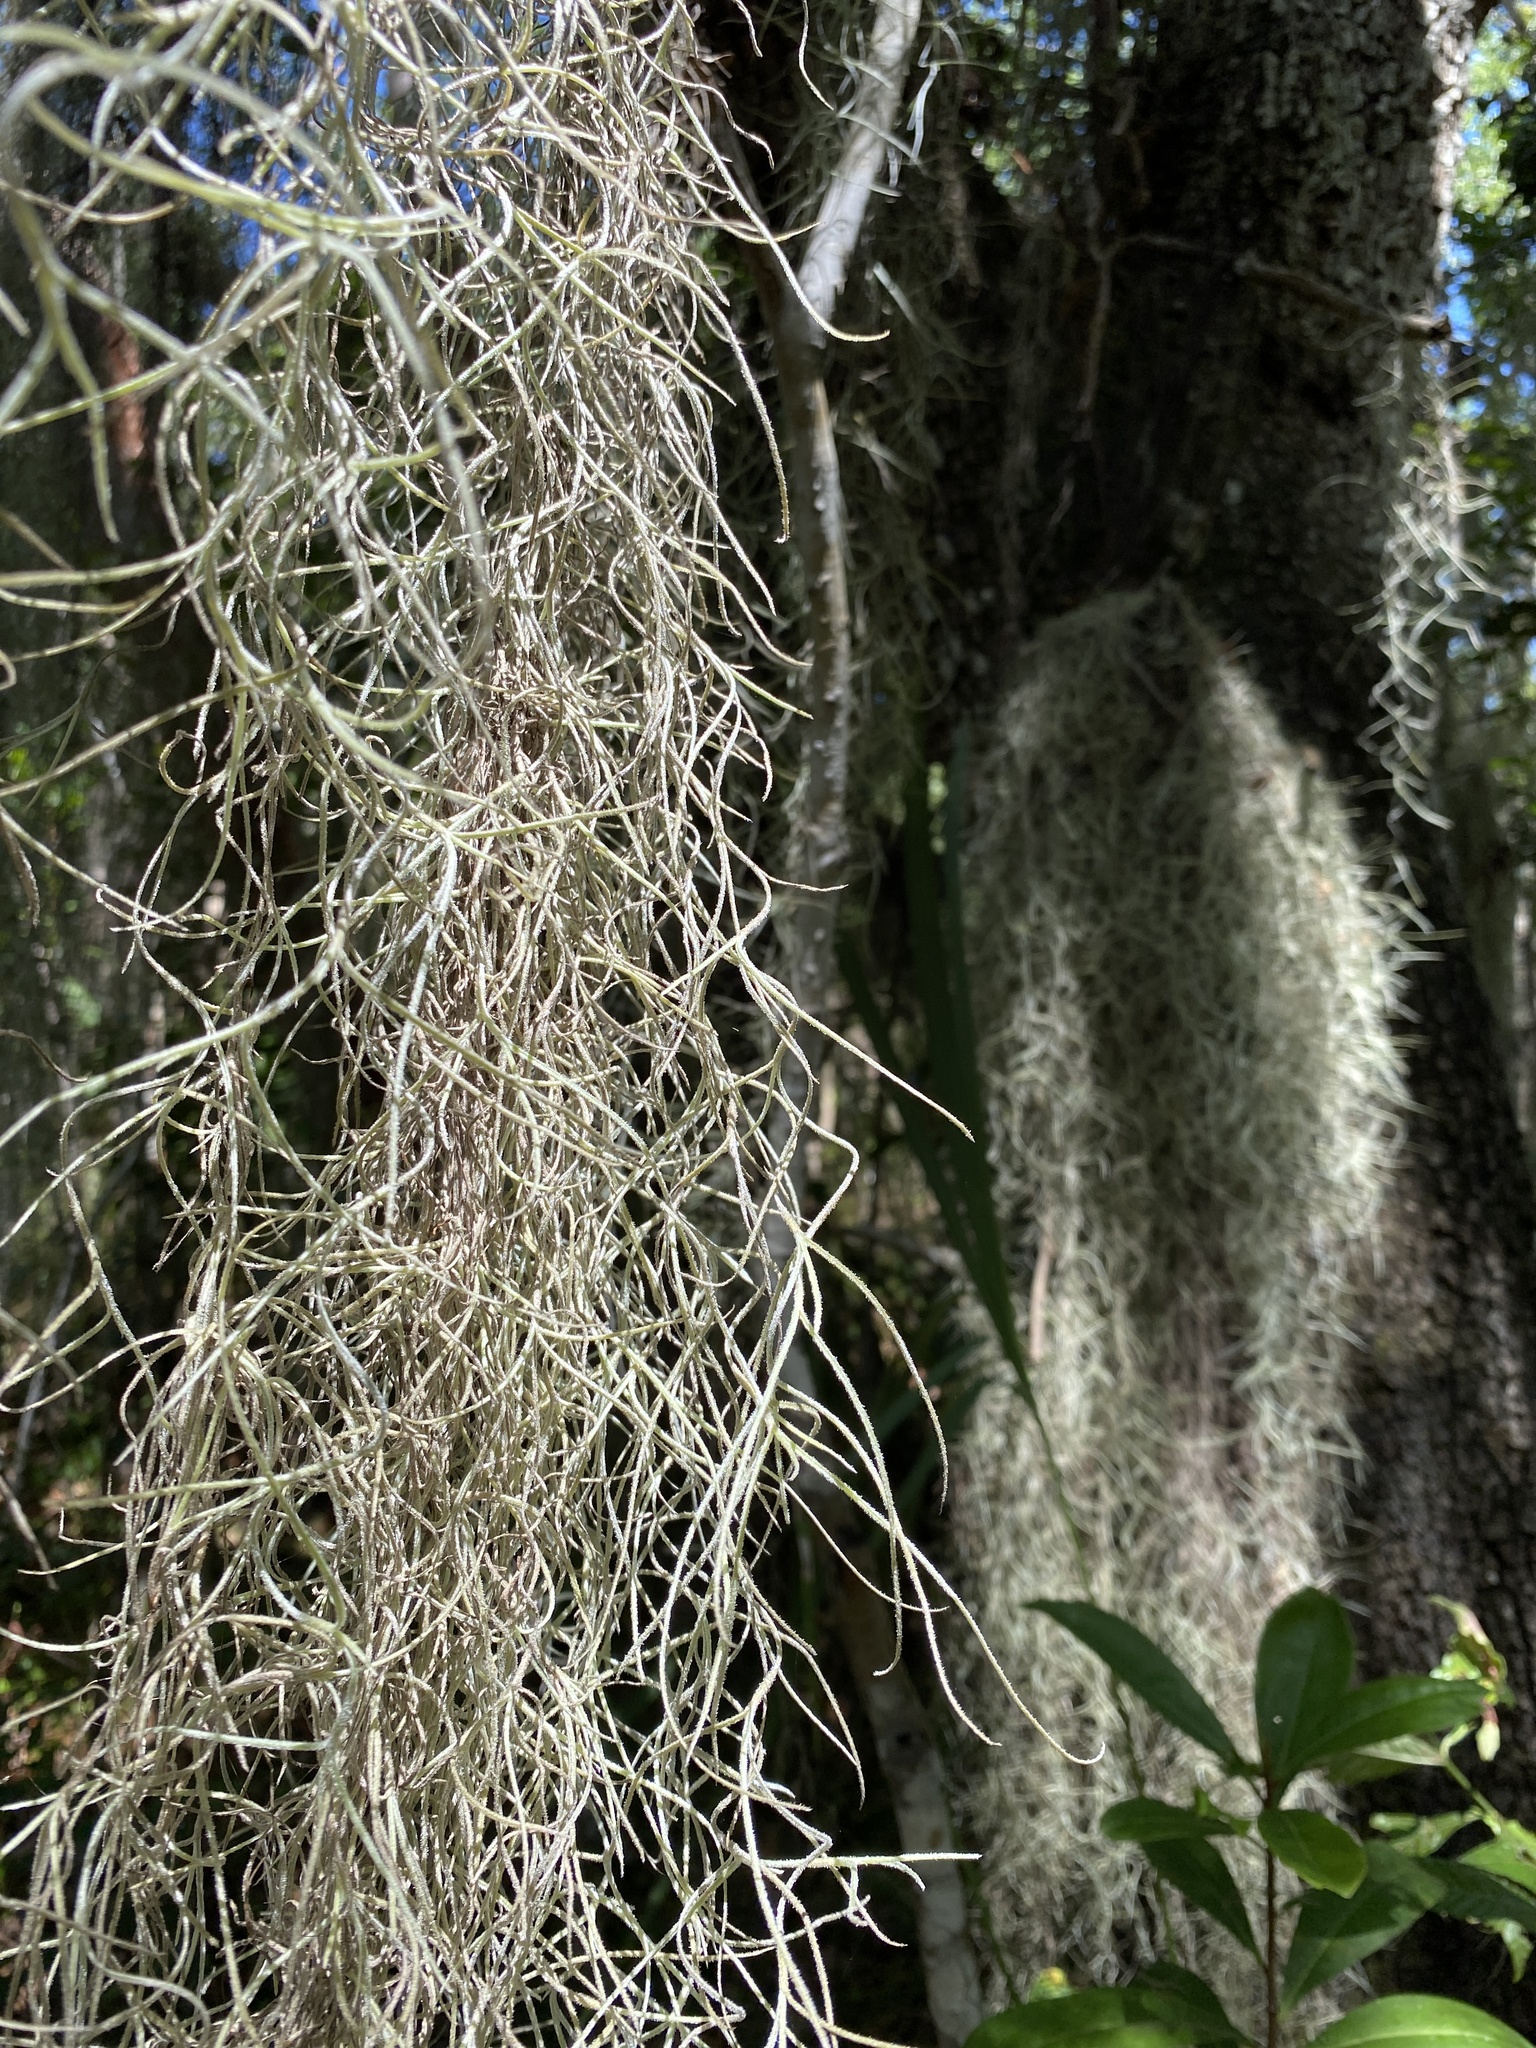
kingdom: Plantae
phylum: Tracheophyta
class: Liliopsida
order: Poales
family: Bromeliaceae
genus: Tillandsia
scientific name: Tillandsia usneoides
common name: Spanish moss
